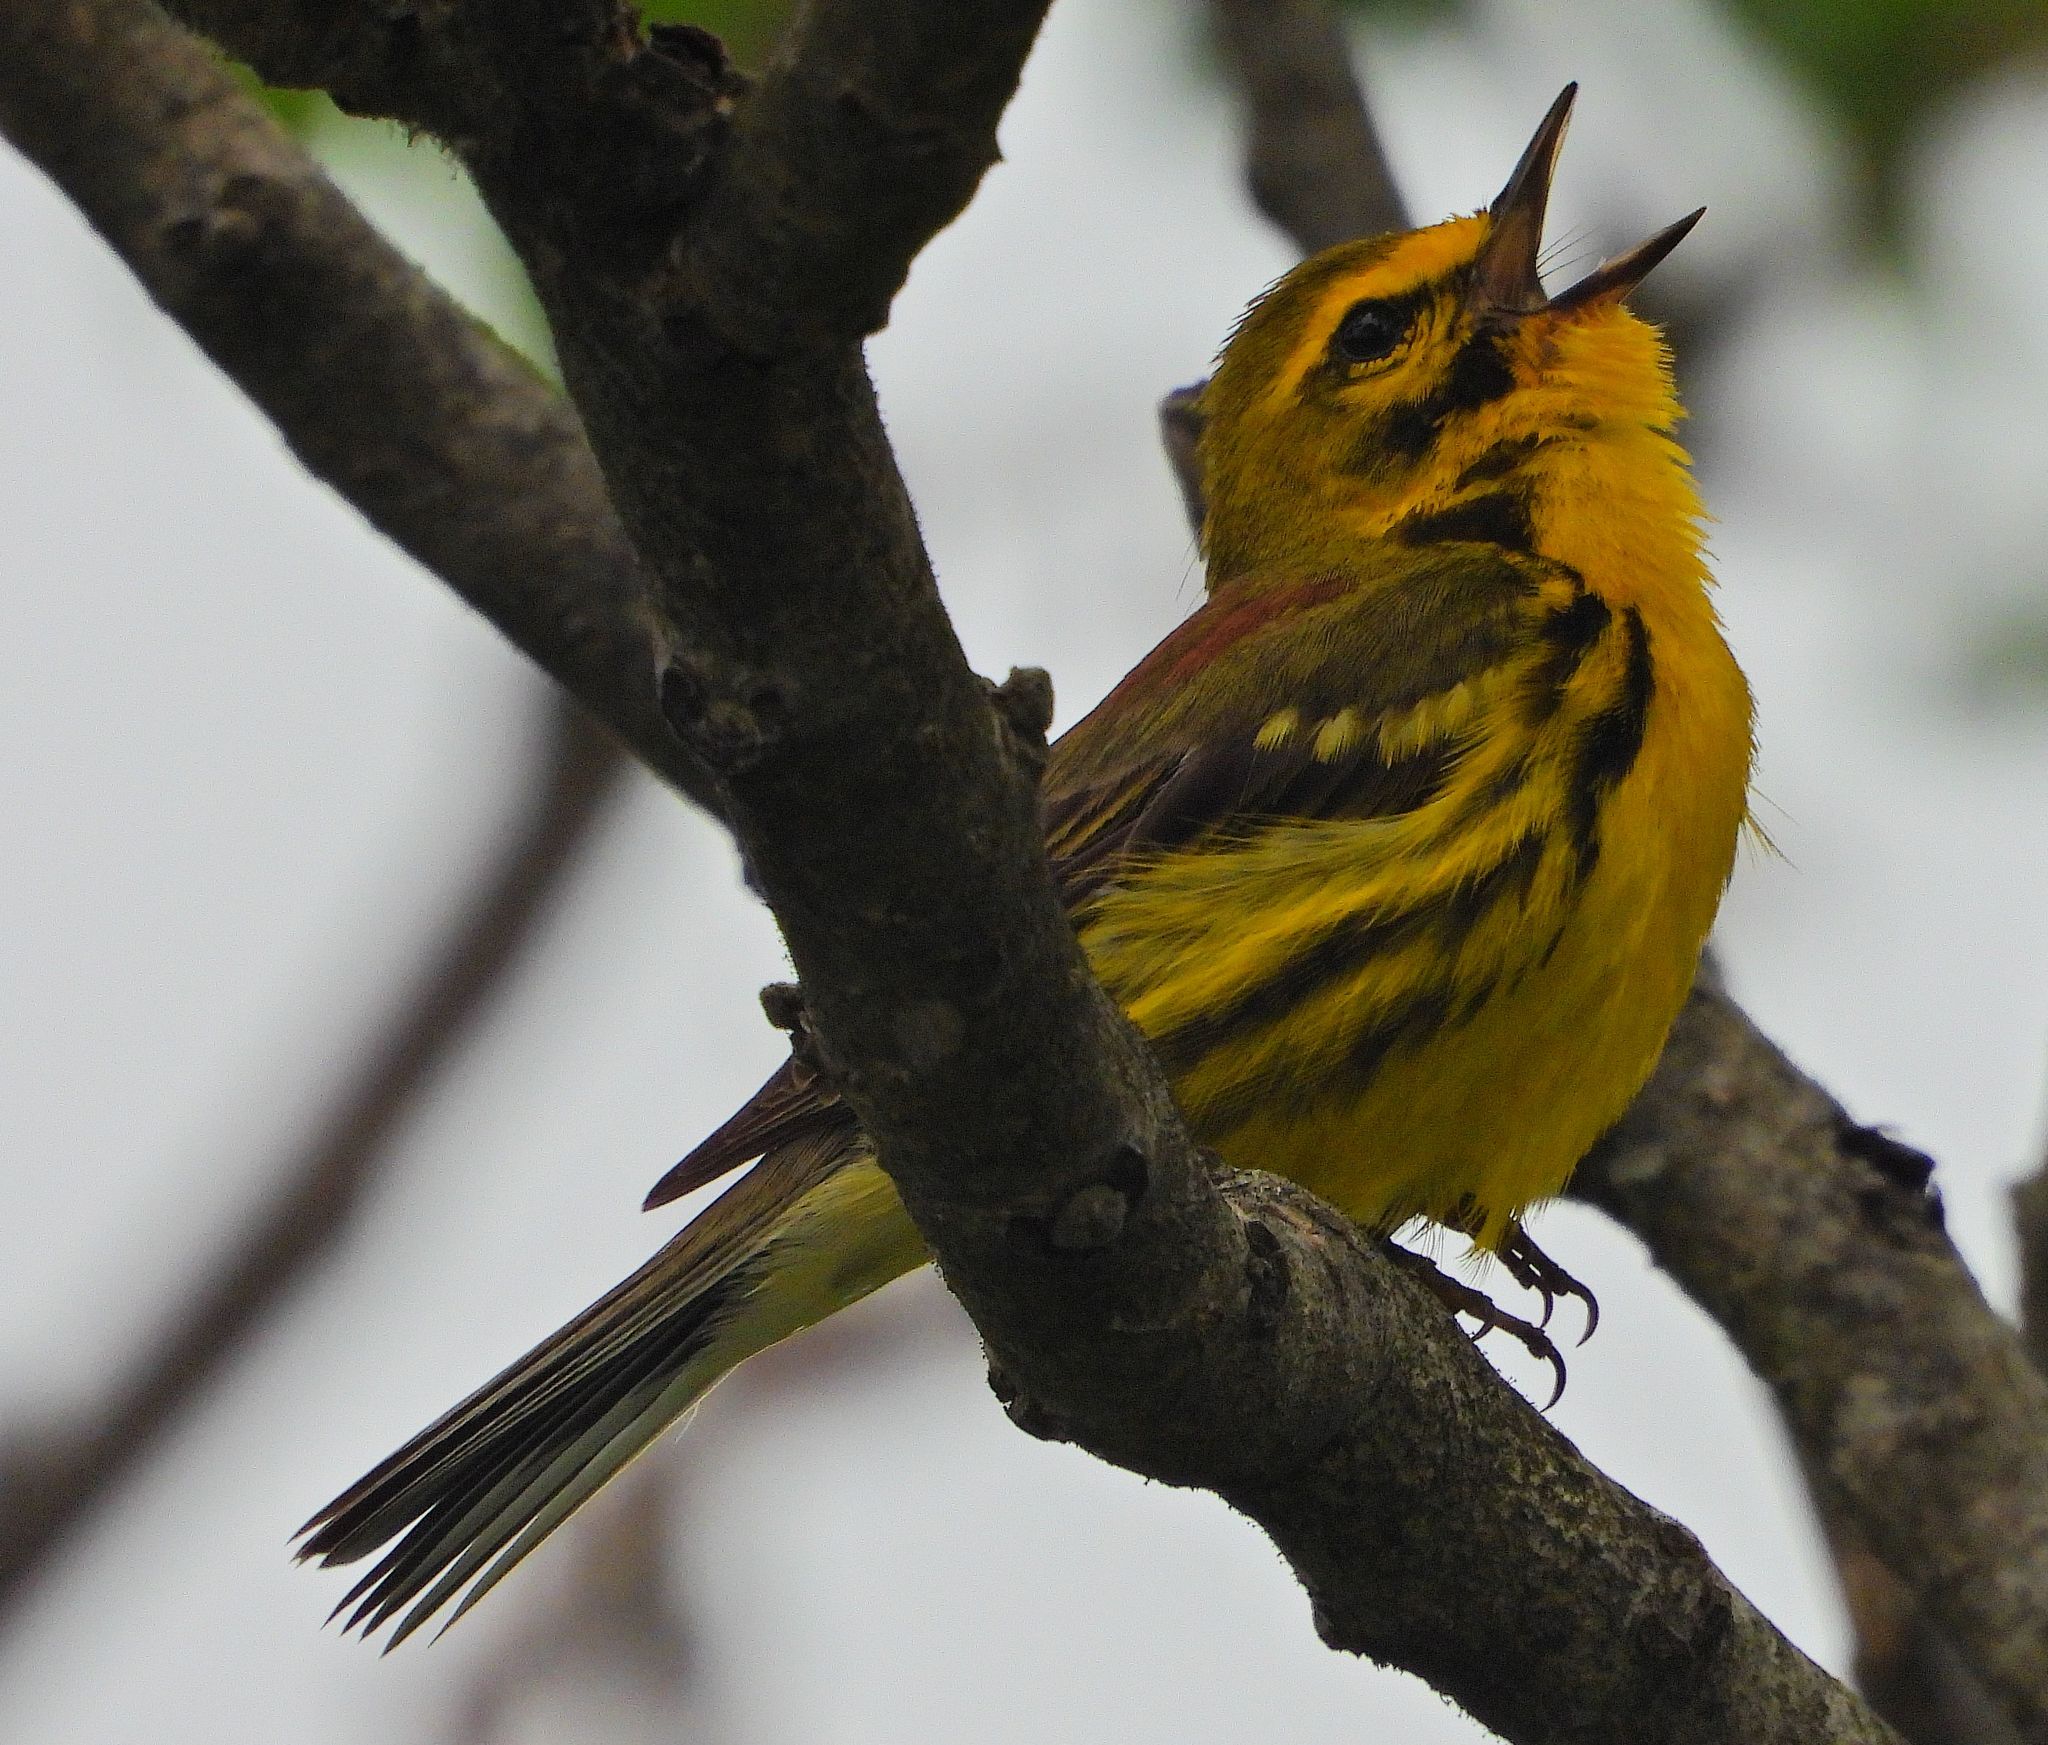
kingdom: Animalia
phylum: Chordata
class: Aves
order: Passeriformes
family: Parulidae
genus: Setophaga
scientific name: Setophaga discolor
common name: Prairie warbler
